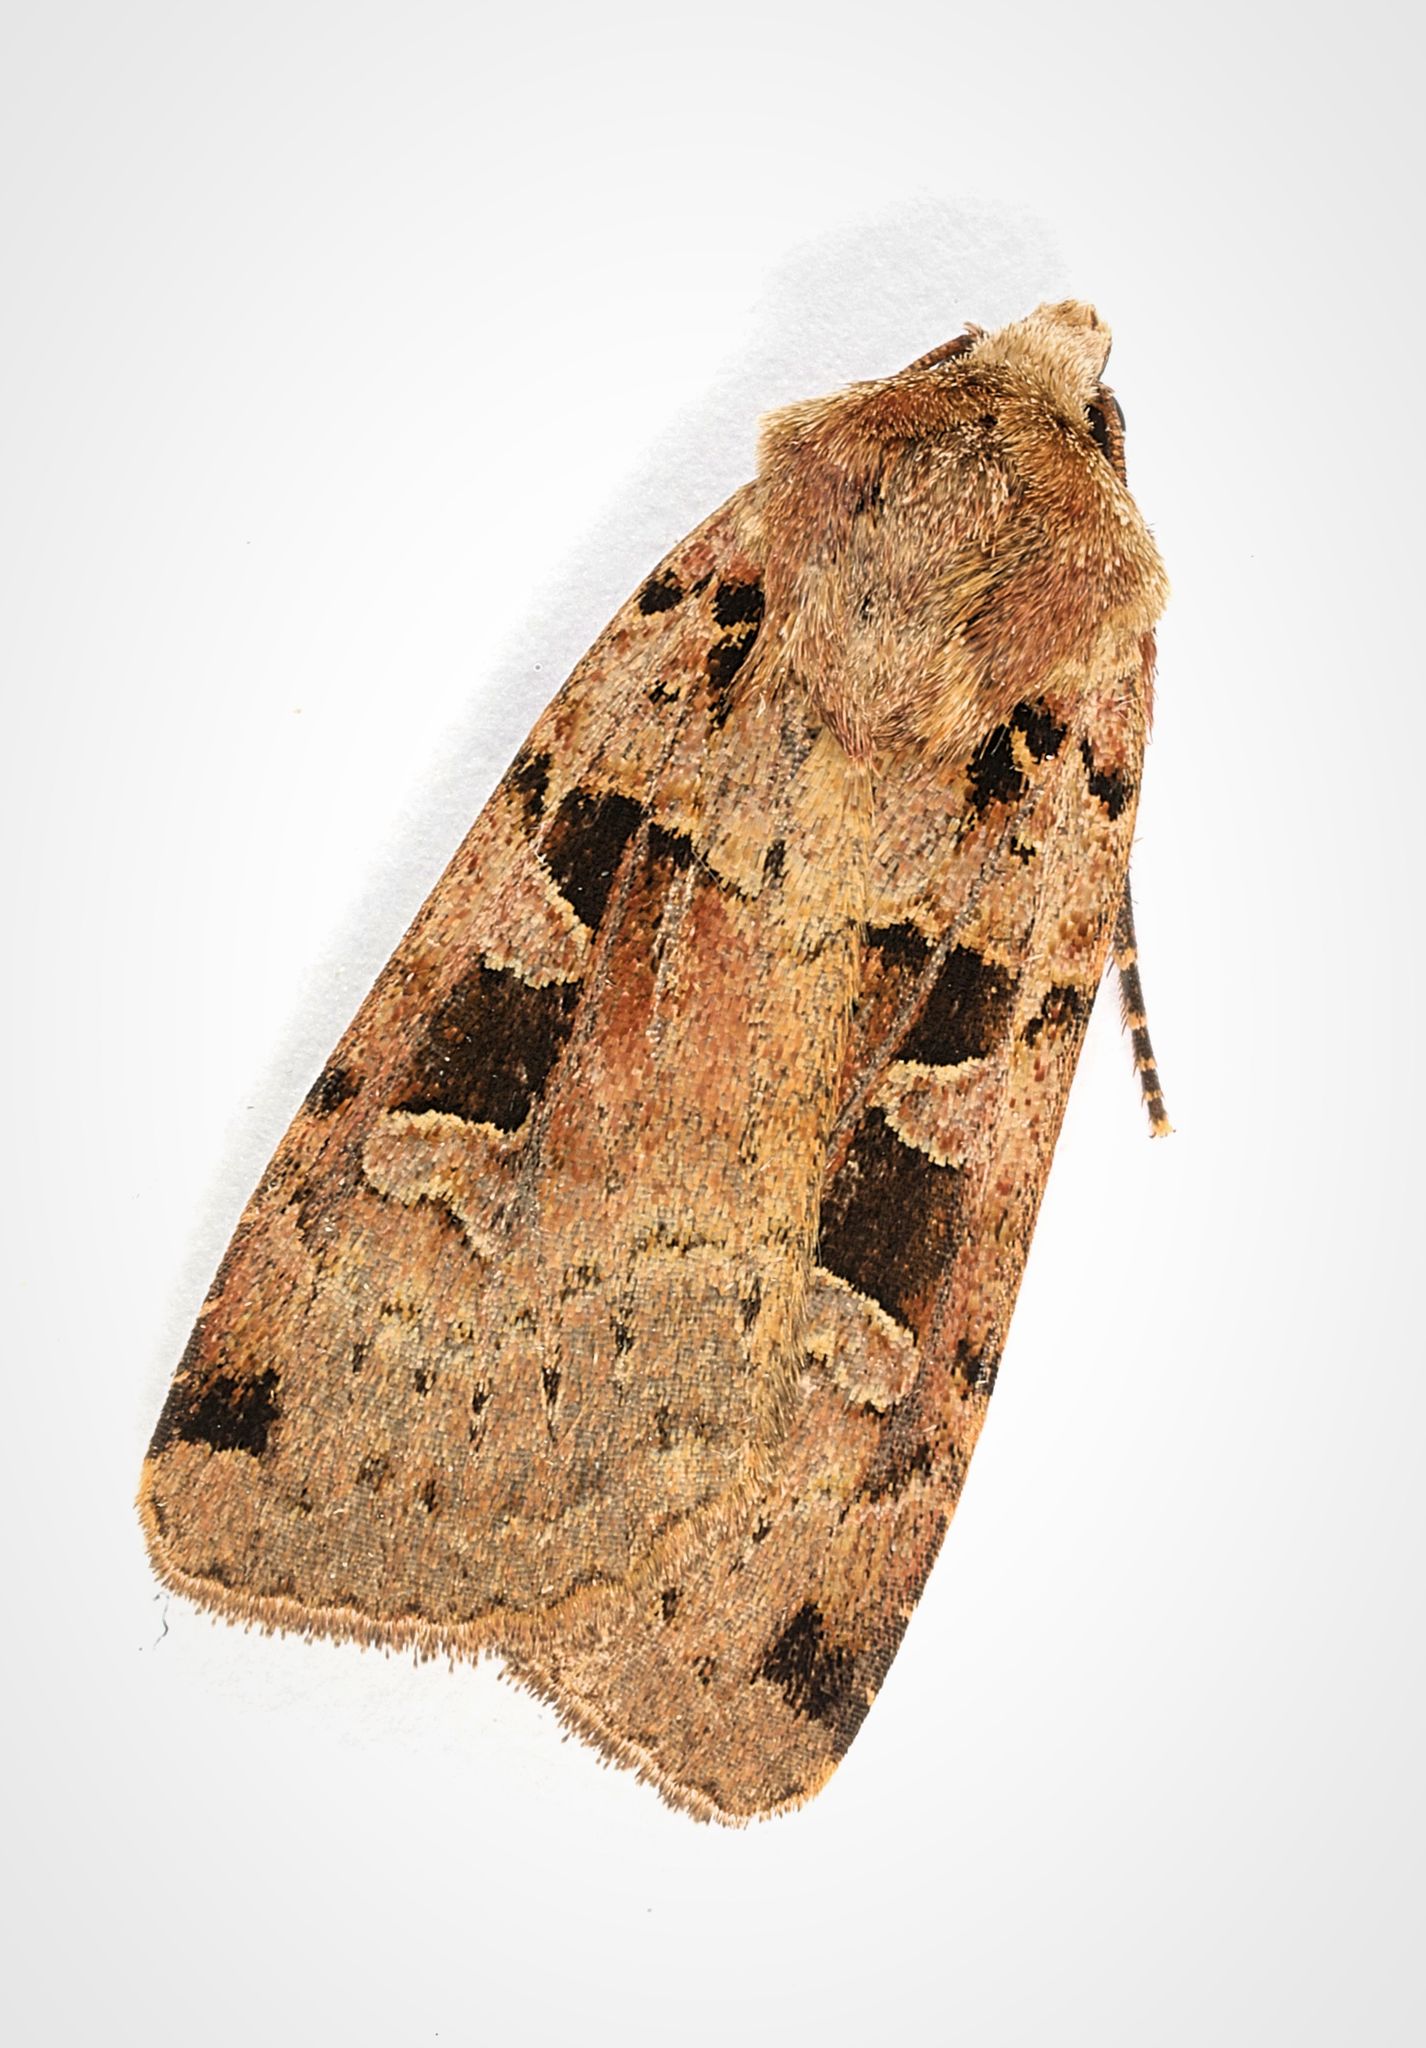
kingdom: Animalia
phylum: Arthropoda
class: Insecta
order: Lepidoptera
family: Noctuidae
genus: Xestia
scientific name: Xestia triangulum
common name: Double square-spot
